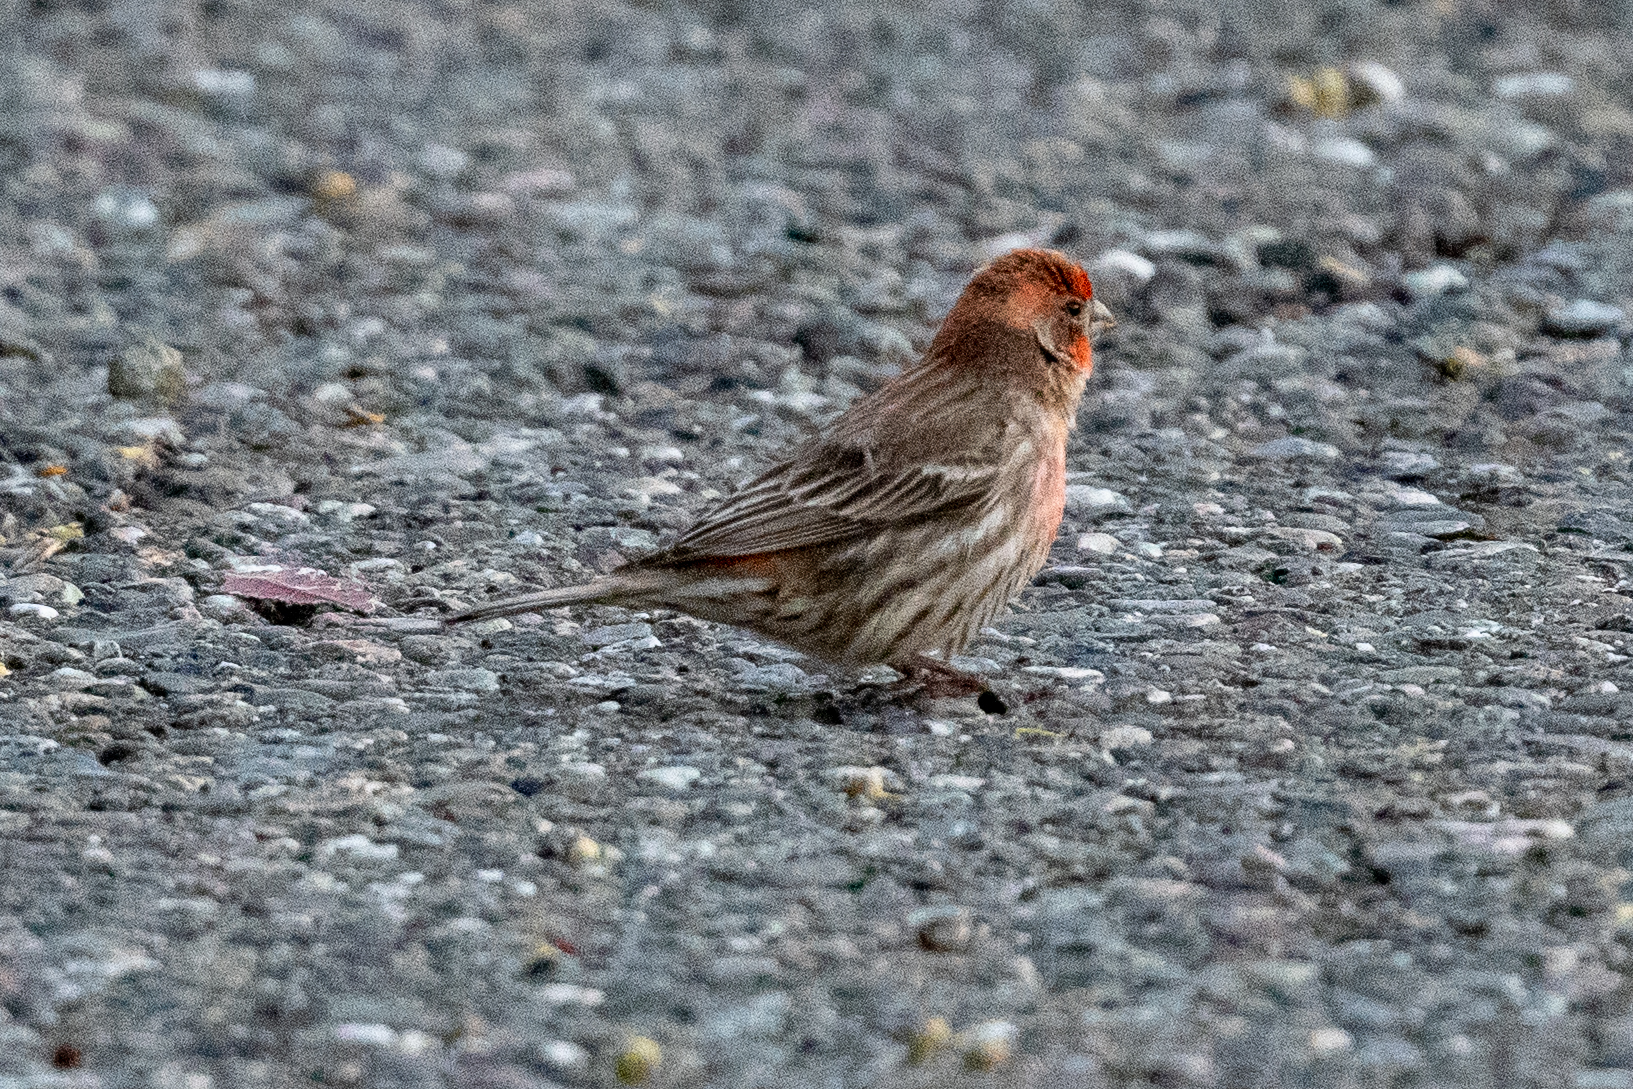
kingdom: Animalia
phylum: Chordata
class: Aves
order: Passeriformes
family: Fringillidae
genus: Haemorhous
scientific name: Haemorhous mexicanus
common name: House finch
